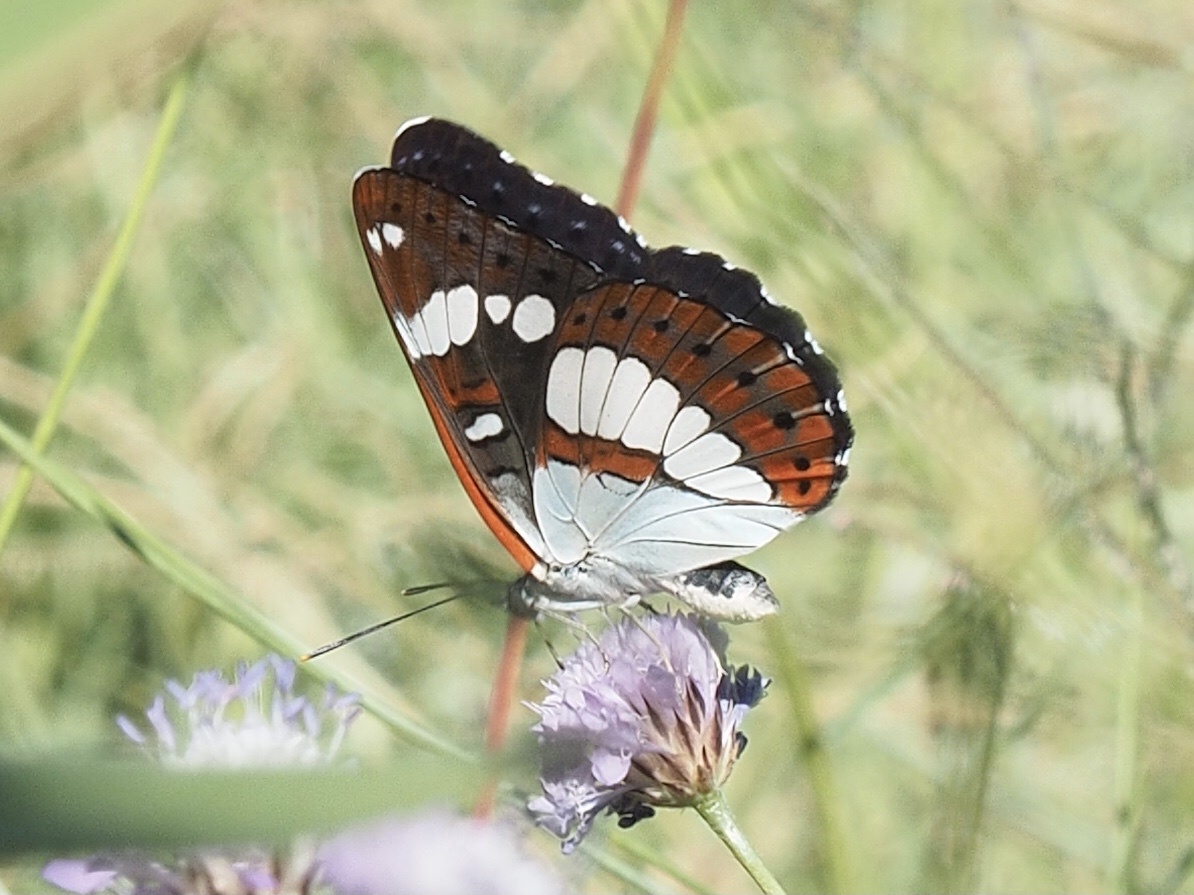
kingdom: Animalia
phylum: Arthropoda
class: Insecta
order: Lepidoptera
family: Nymphalidae
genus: Limenitis
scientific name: Limenitis reducta
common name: Southern white admiral
